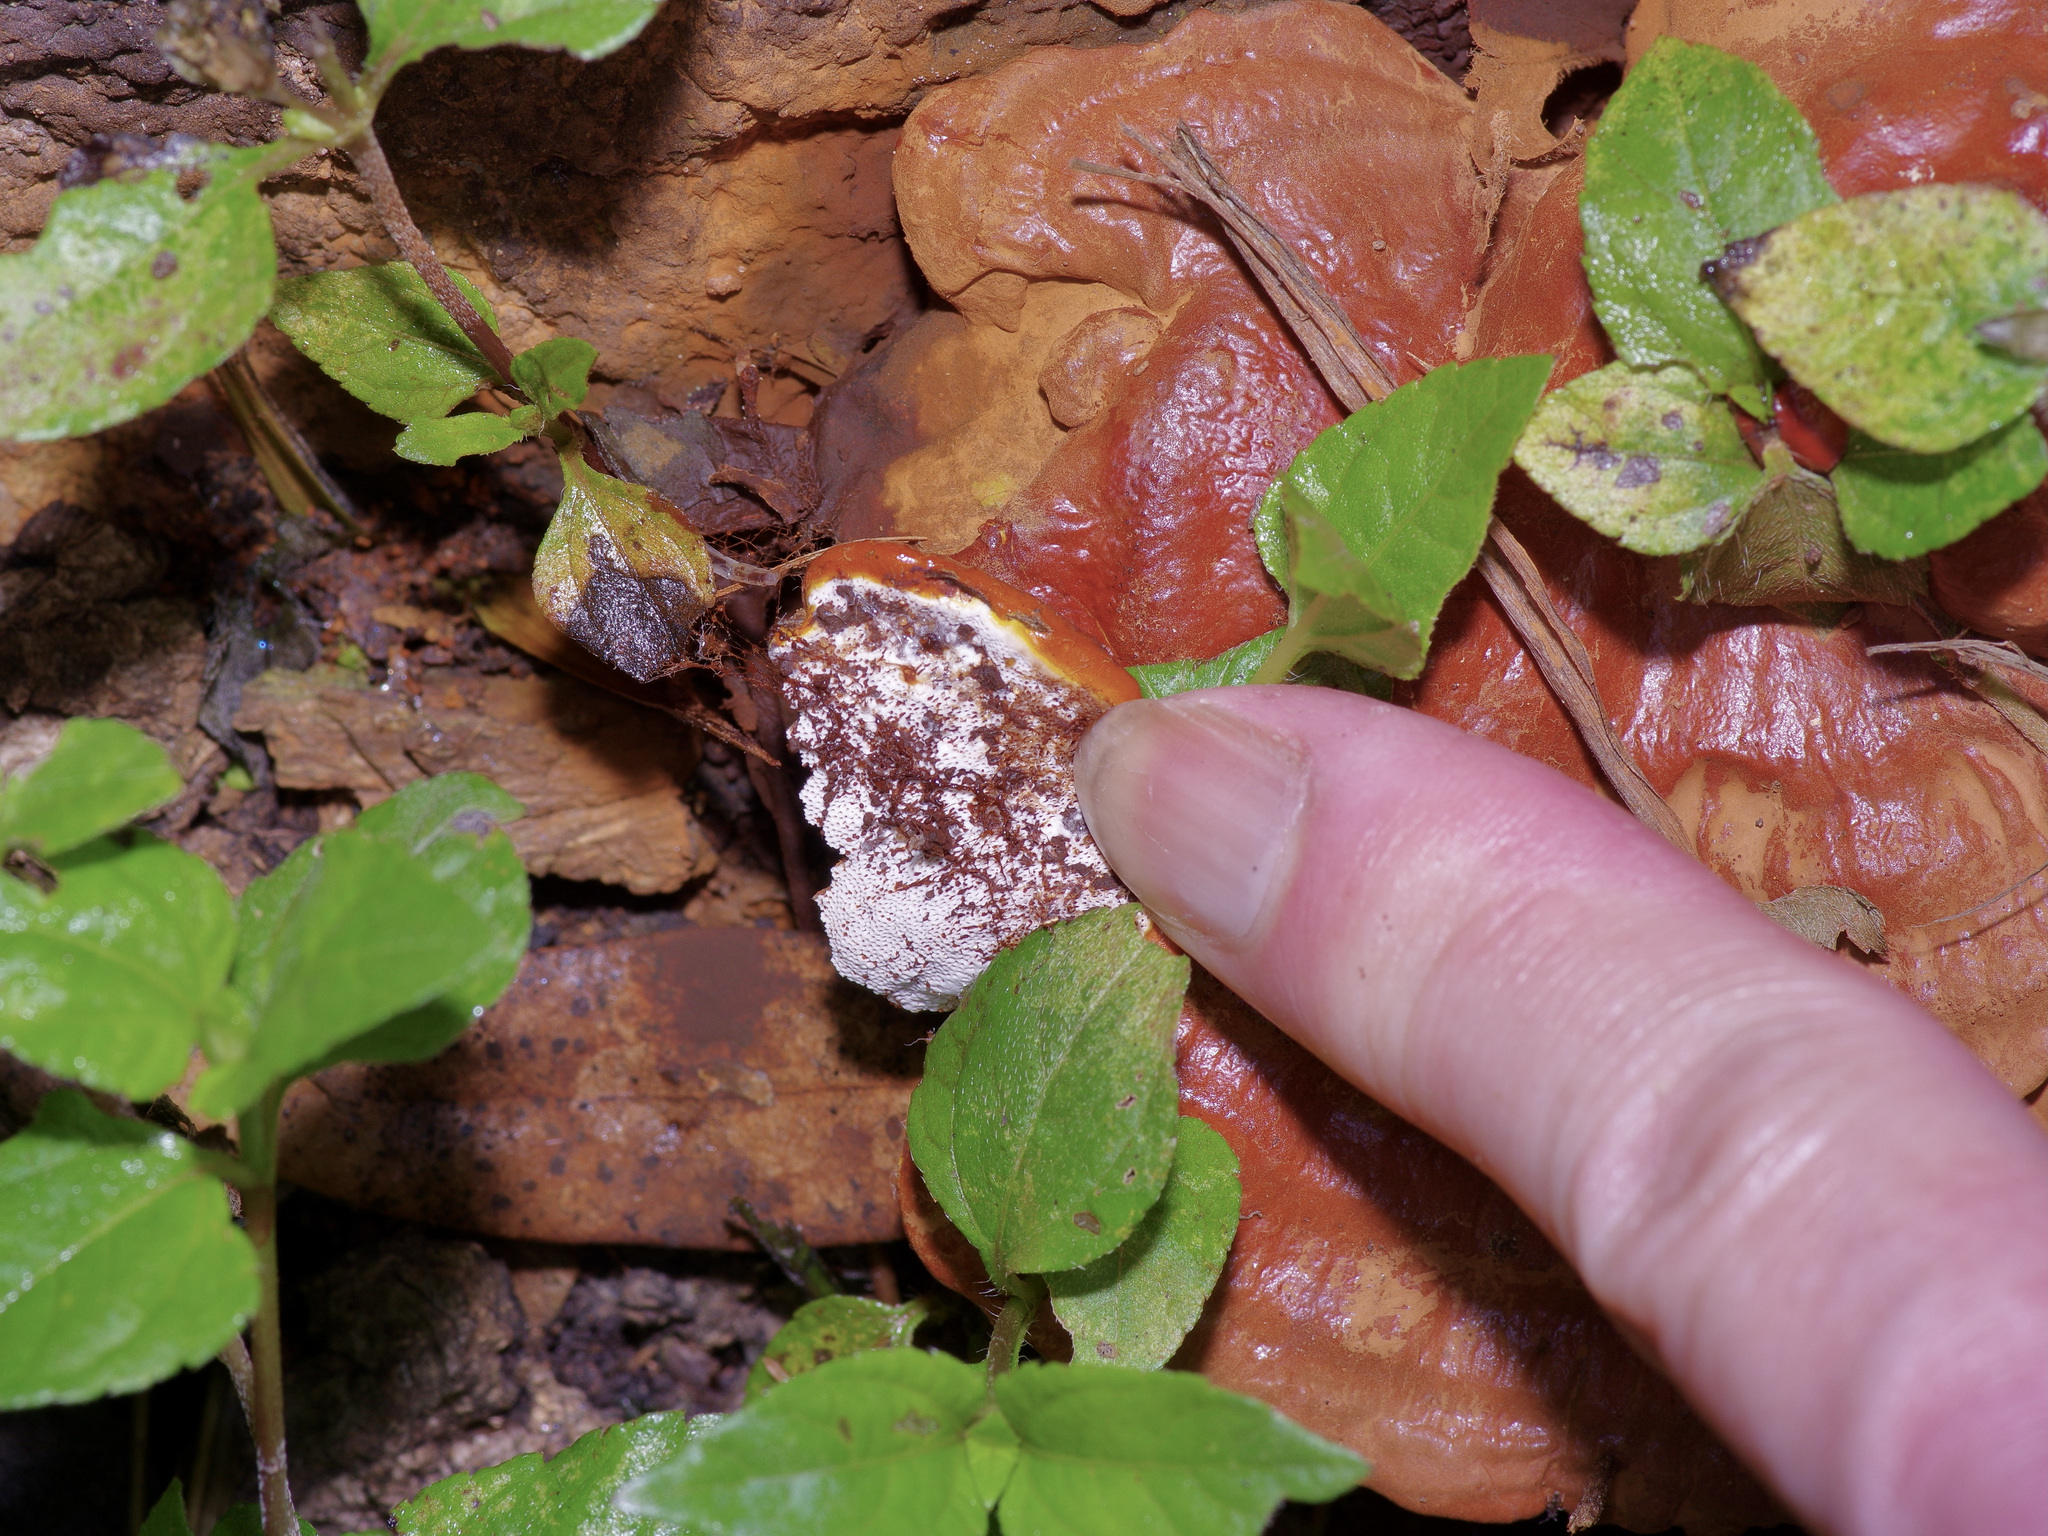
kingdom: Fungi
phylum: Basidiomycota
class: Agaricomycetes
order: Polyporales
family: Polyporaceae
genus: Ganoderma
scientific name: Ganoderma resinaceum
